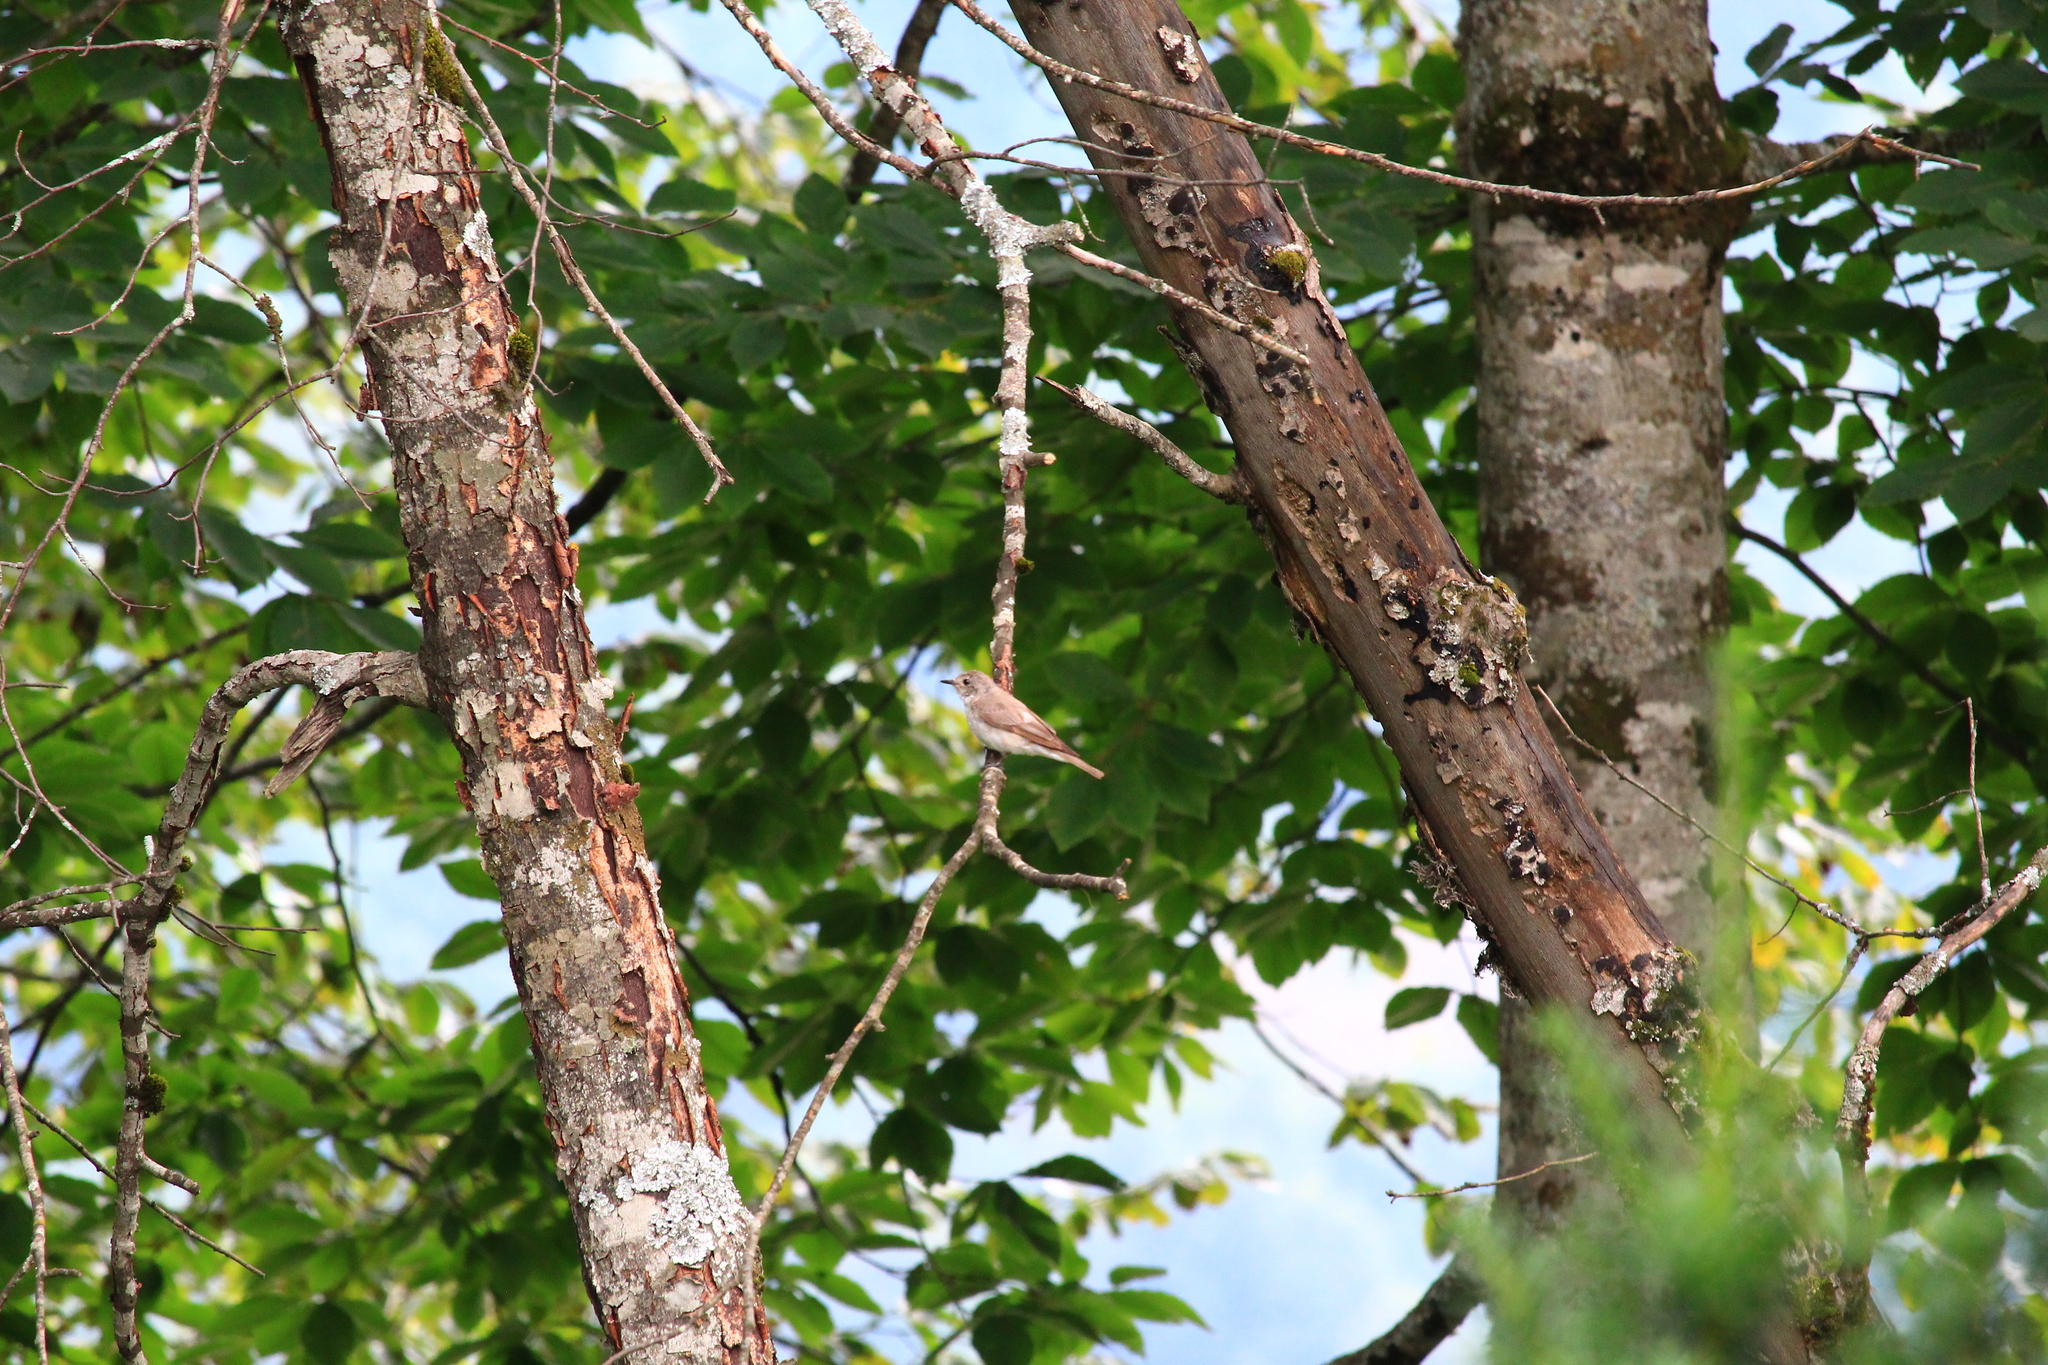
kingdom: Animalia
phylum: Chordata
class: Aves
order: Passeriformes
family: Muscicapidae
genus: Muscicapa
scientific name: Muscicapa striata
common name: Spotted flycatcher
